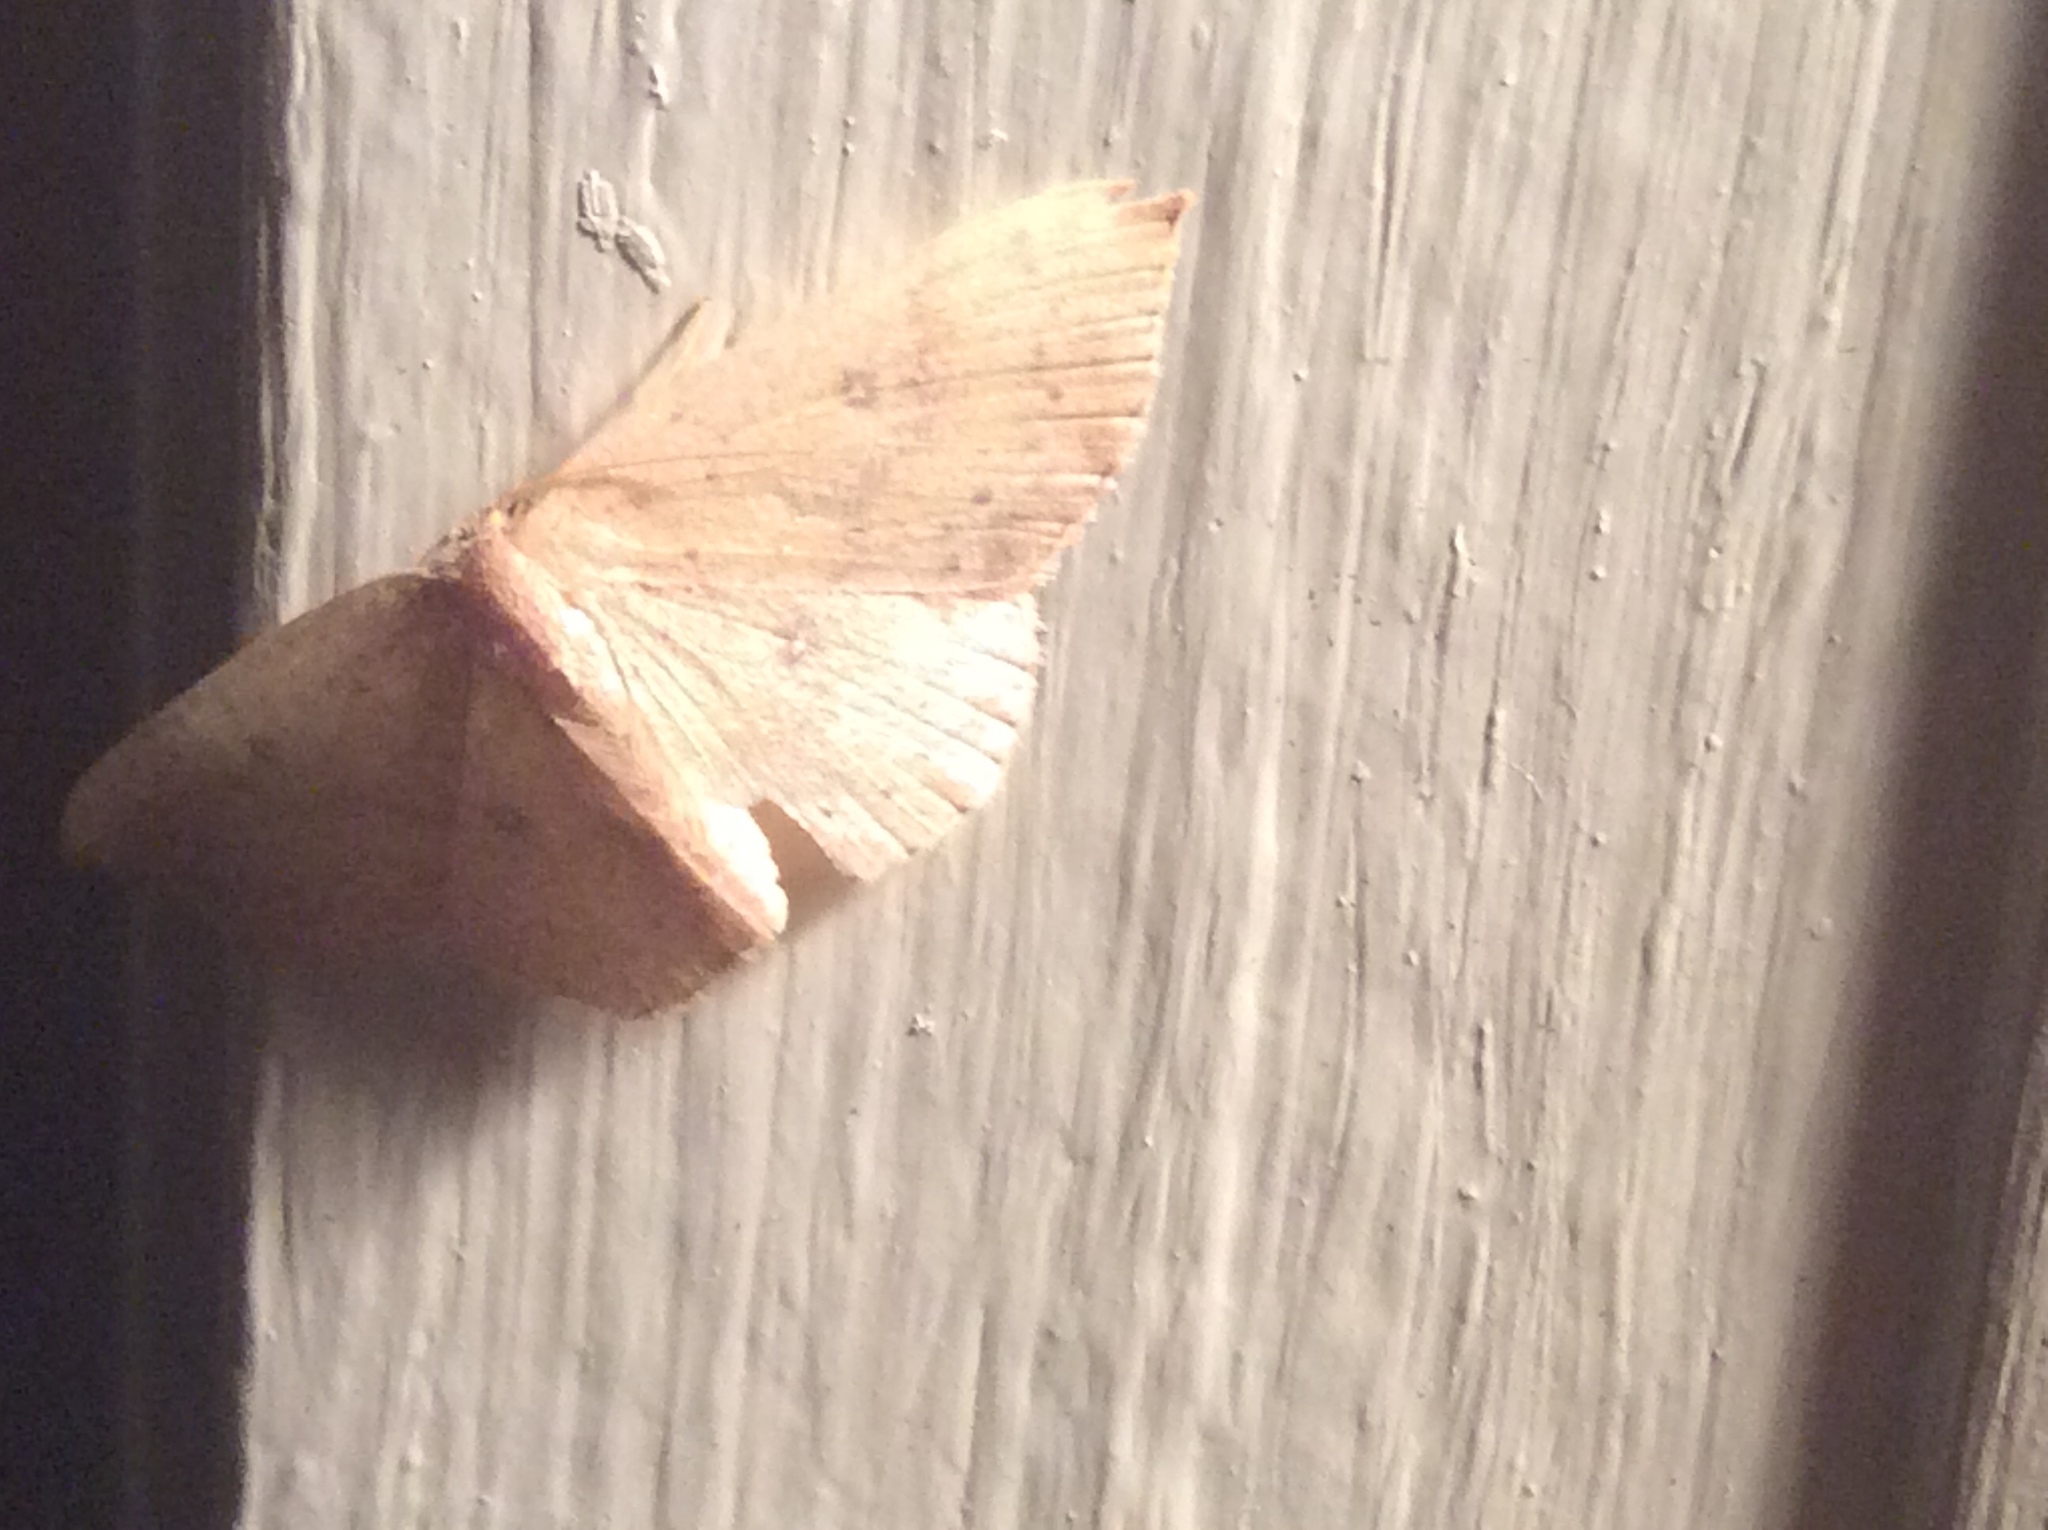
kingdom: Animalia
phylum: Arthropoda
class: Insecta
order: Lepidoptera
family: Geometridae
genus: Cyclophora
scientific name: Cyclophora packardi
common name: Packard's wave
